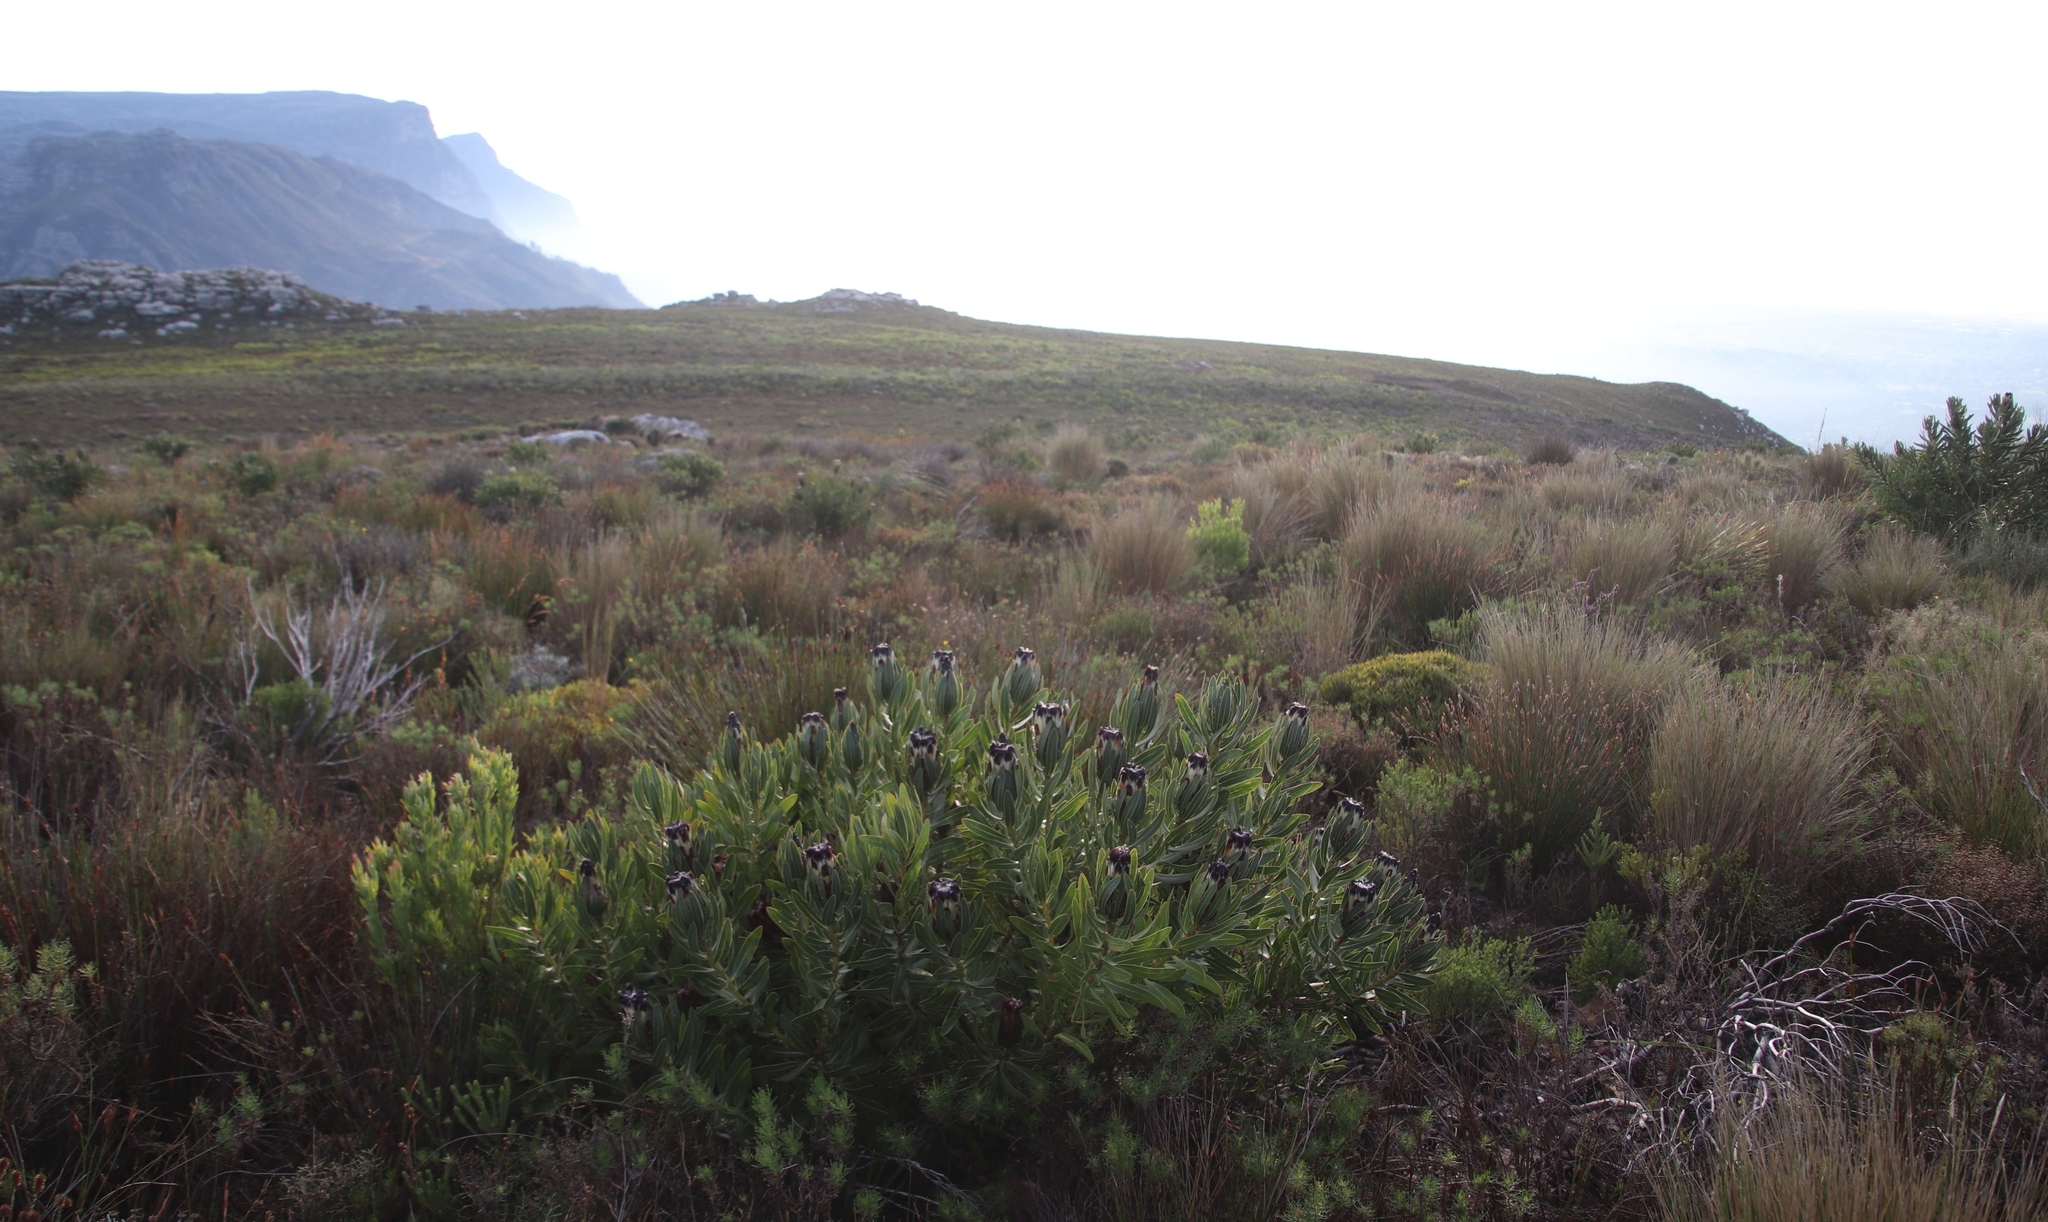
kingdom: Plantae
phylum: Tracheophyta
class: Magnoliopsida
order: Proteales
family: Proteaceae
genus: Protea
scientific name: Protea lepidocarpodendron
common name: Black-bearded protea
